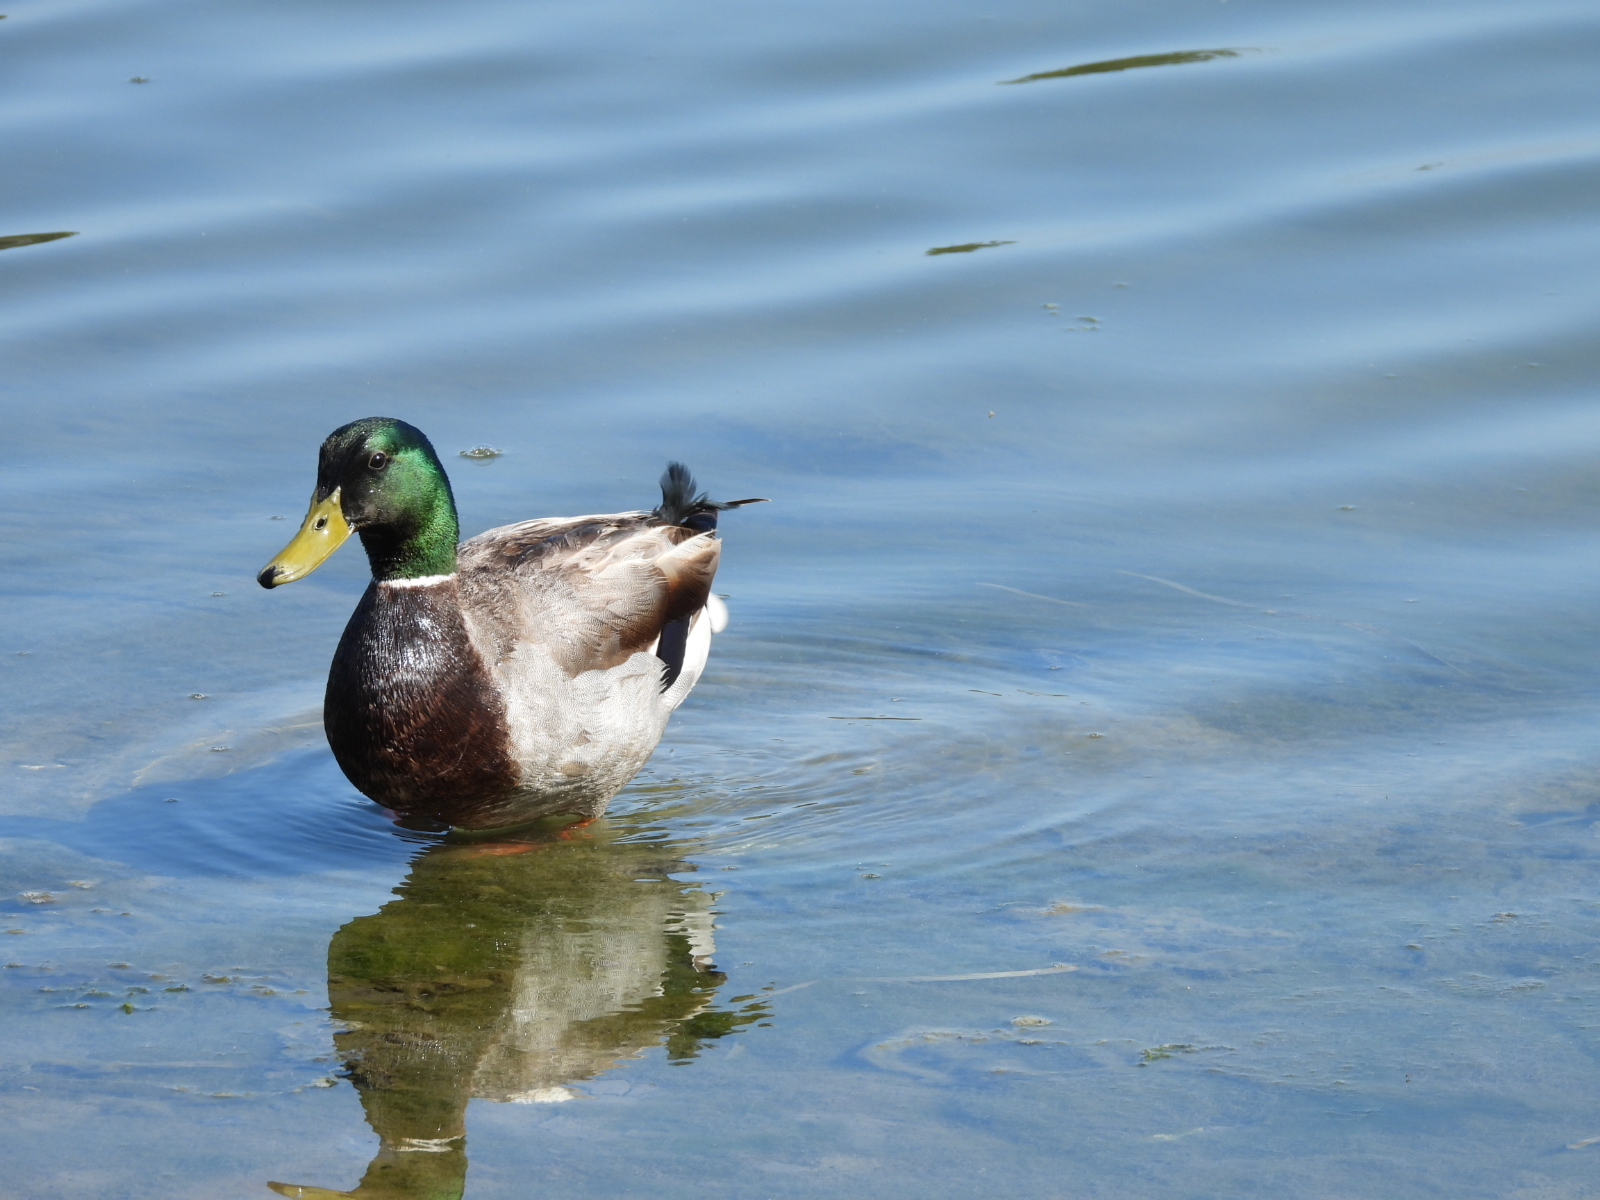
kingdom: Animalia
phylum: Chordata
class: Aves
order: Anseriformes
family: Anatidae
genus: Anas
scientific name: Anas platyrhynchos
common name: Mallard
